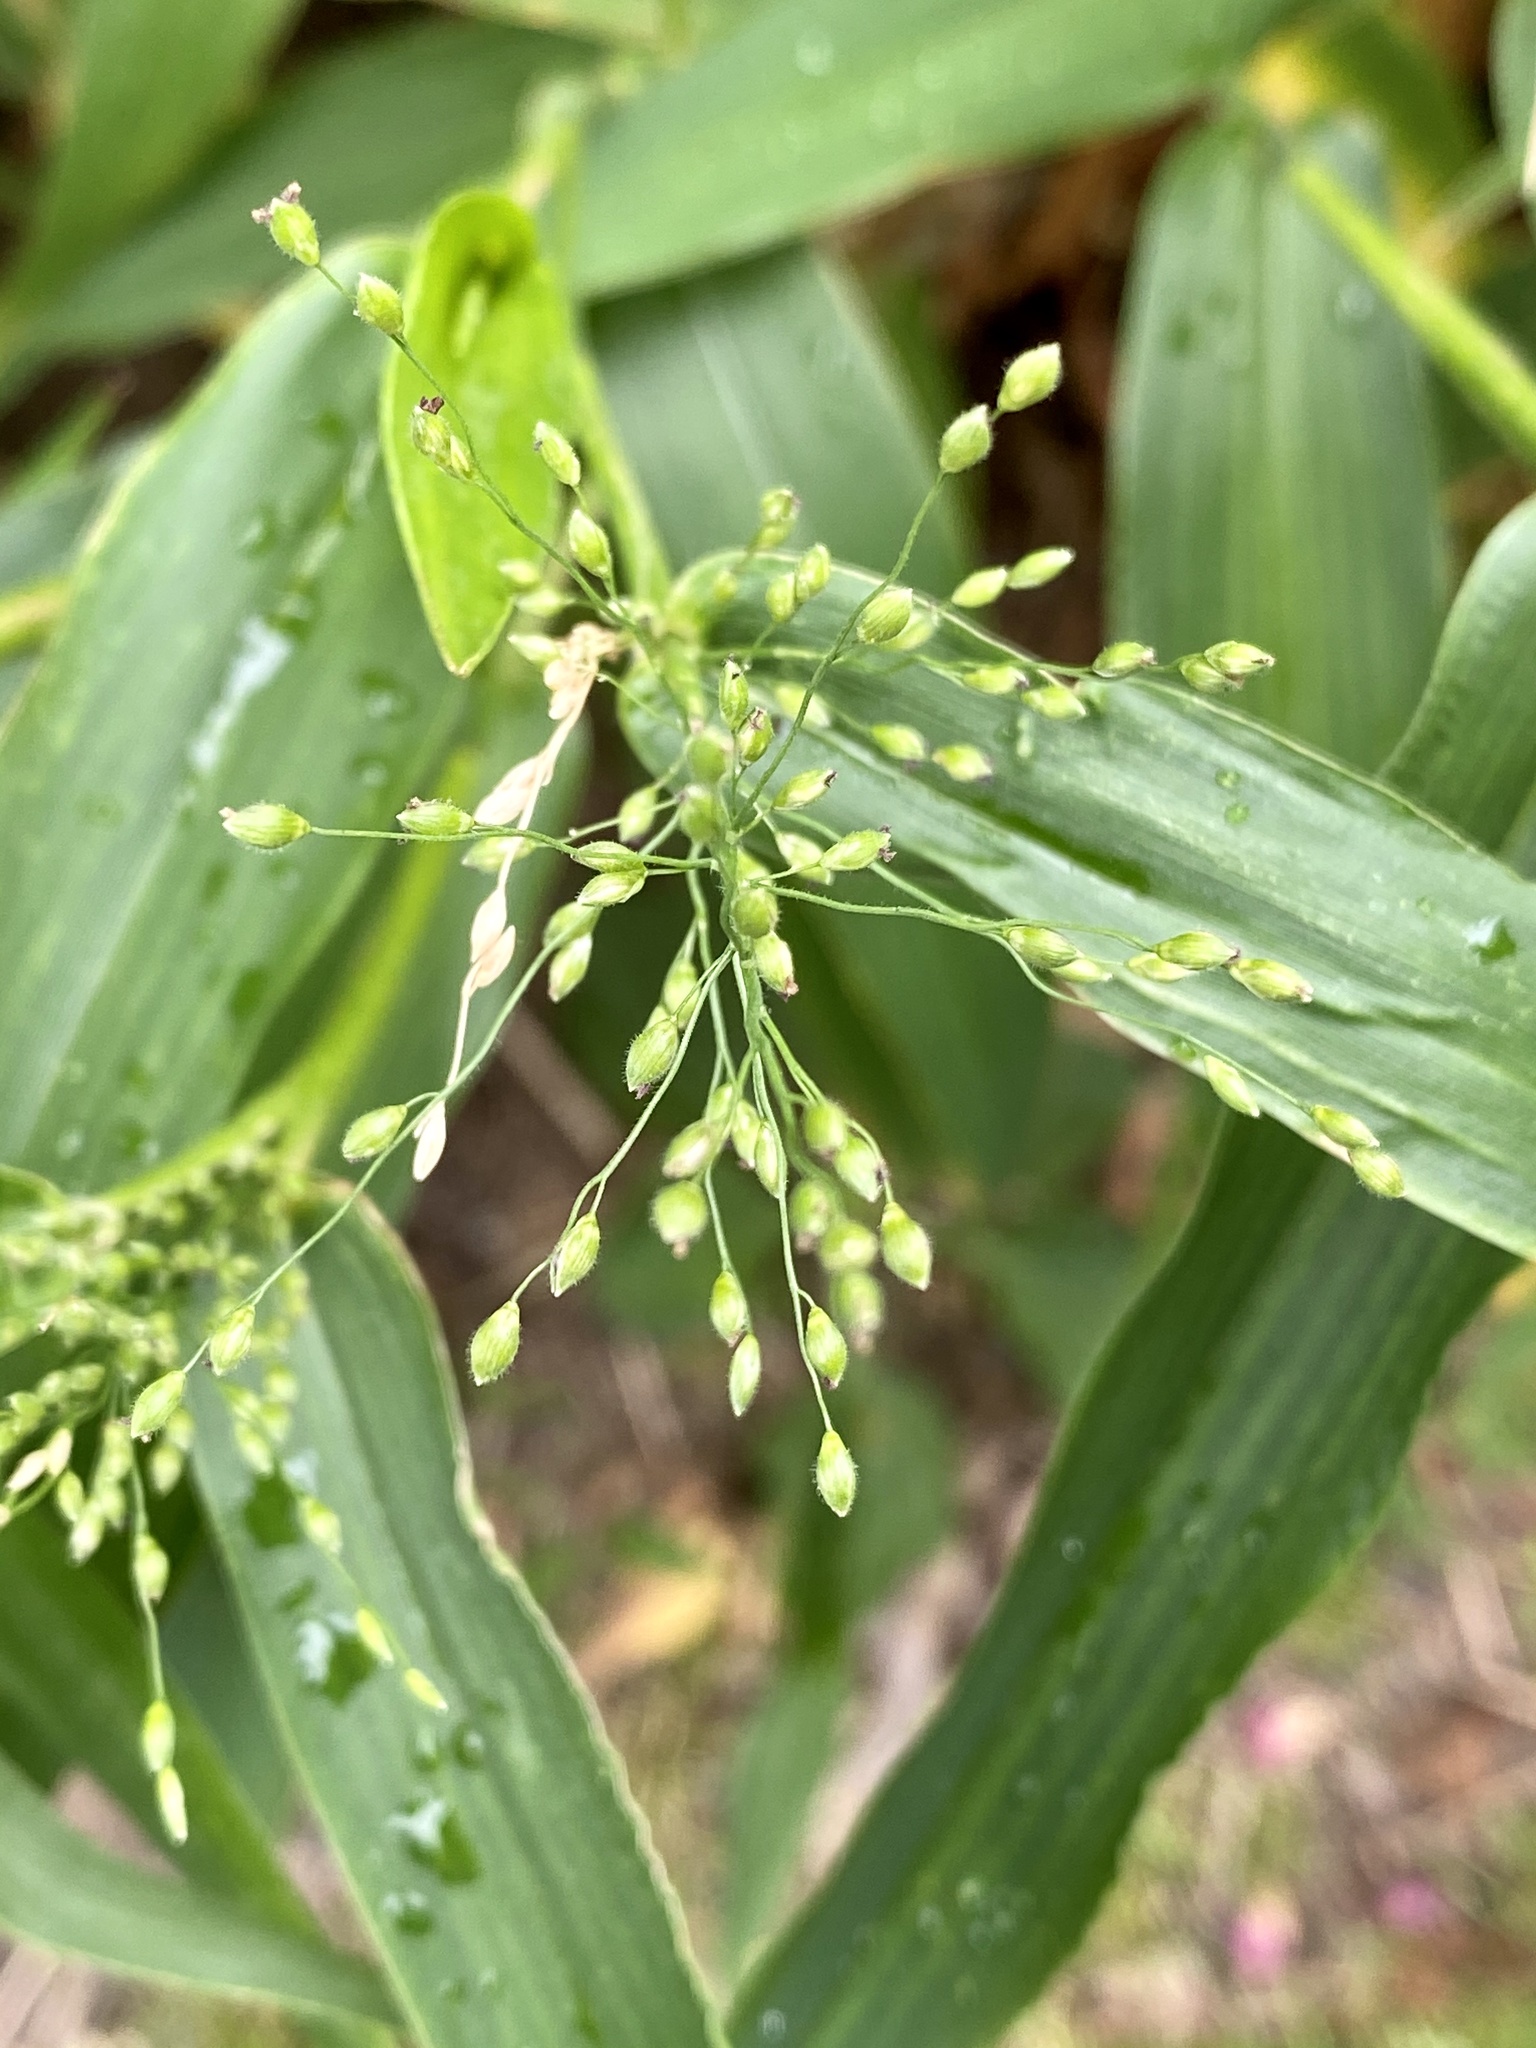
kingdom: Plantae
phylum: Tracheophyta
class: Liliopsida
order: Poales
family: Poaceae
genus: Dichanthelium
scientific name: Dichanthelium clandestinum
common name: Deer-tongue grass
